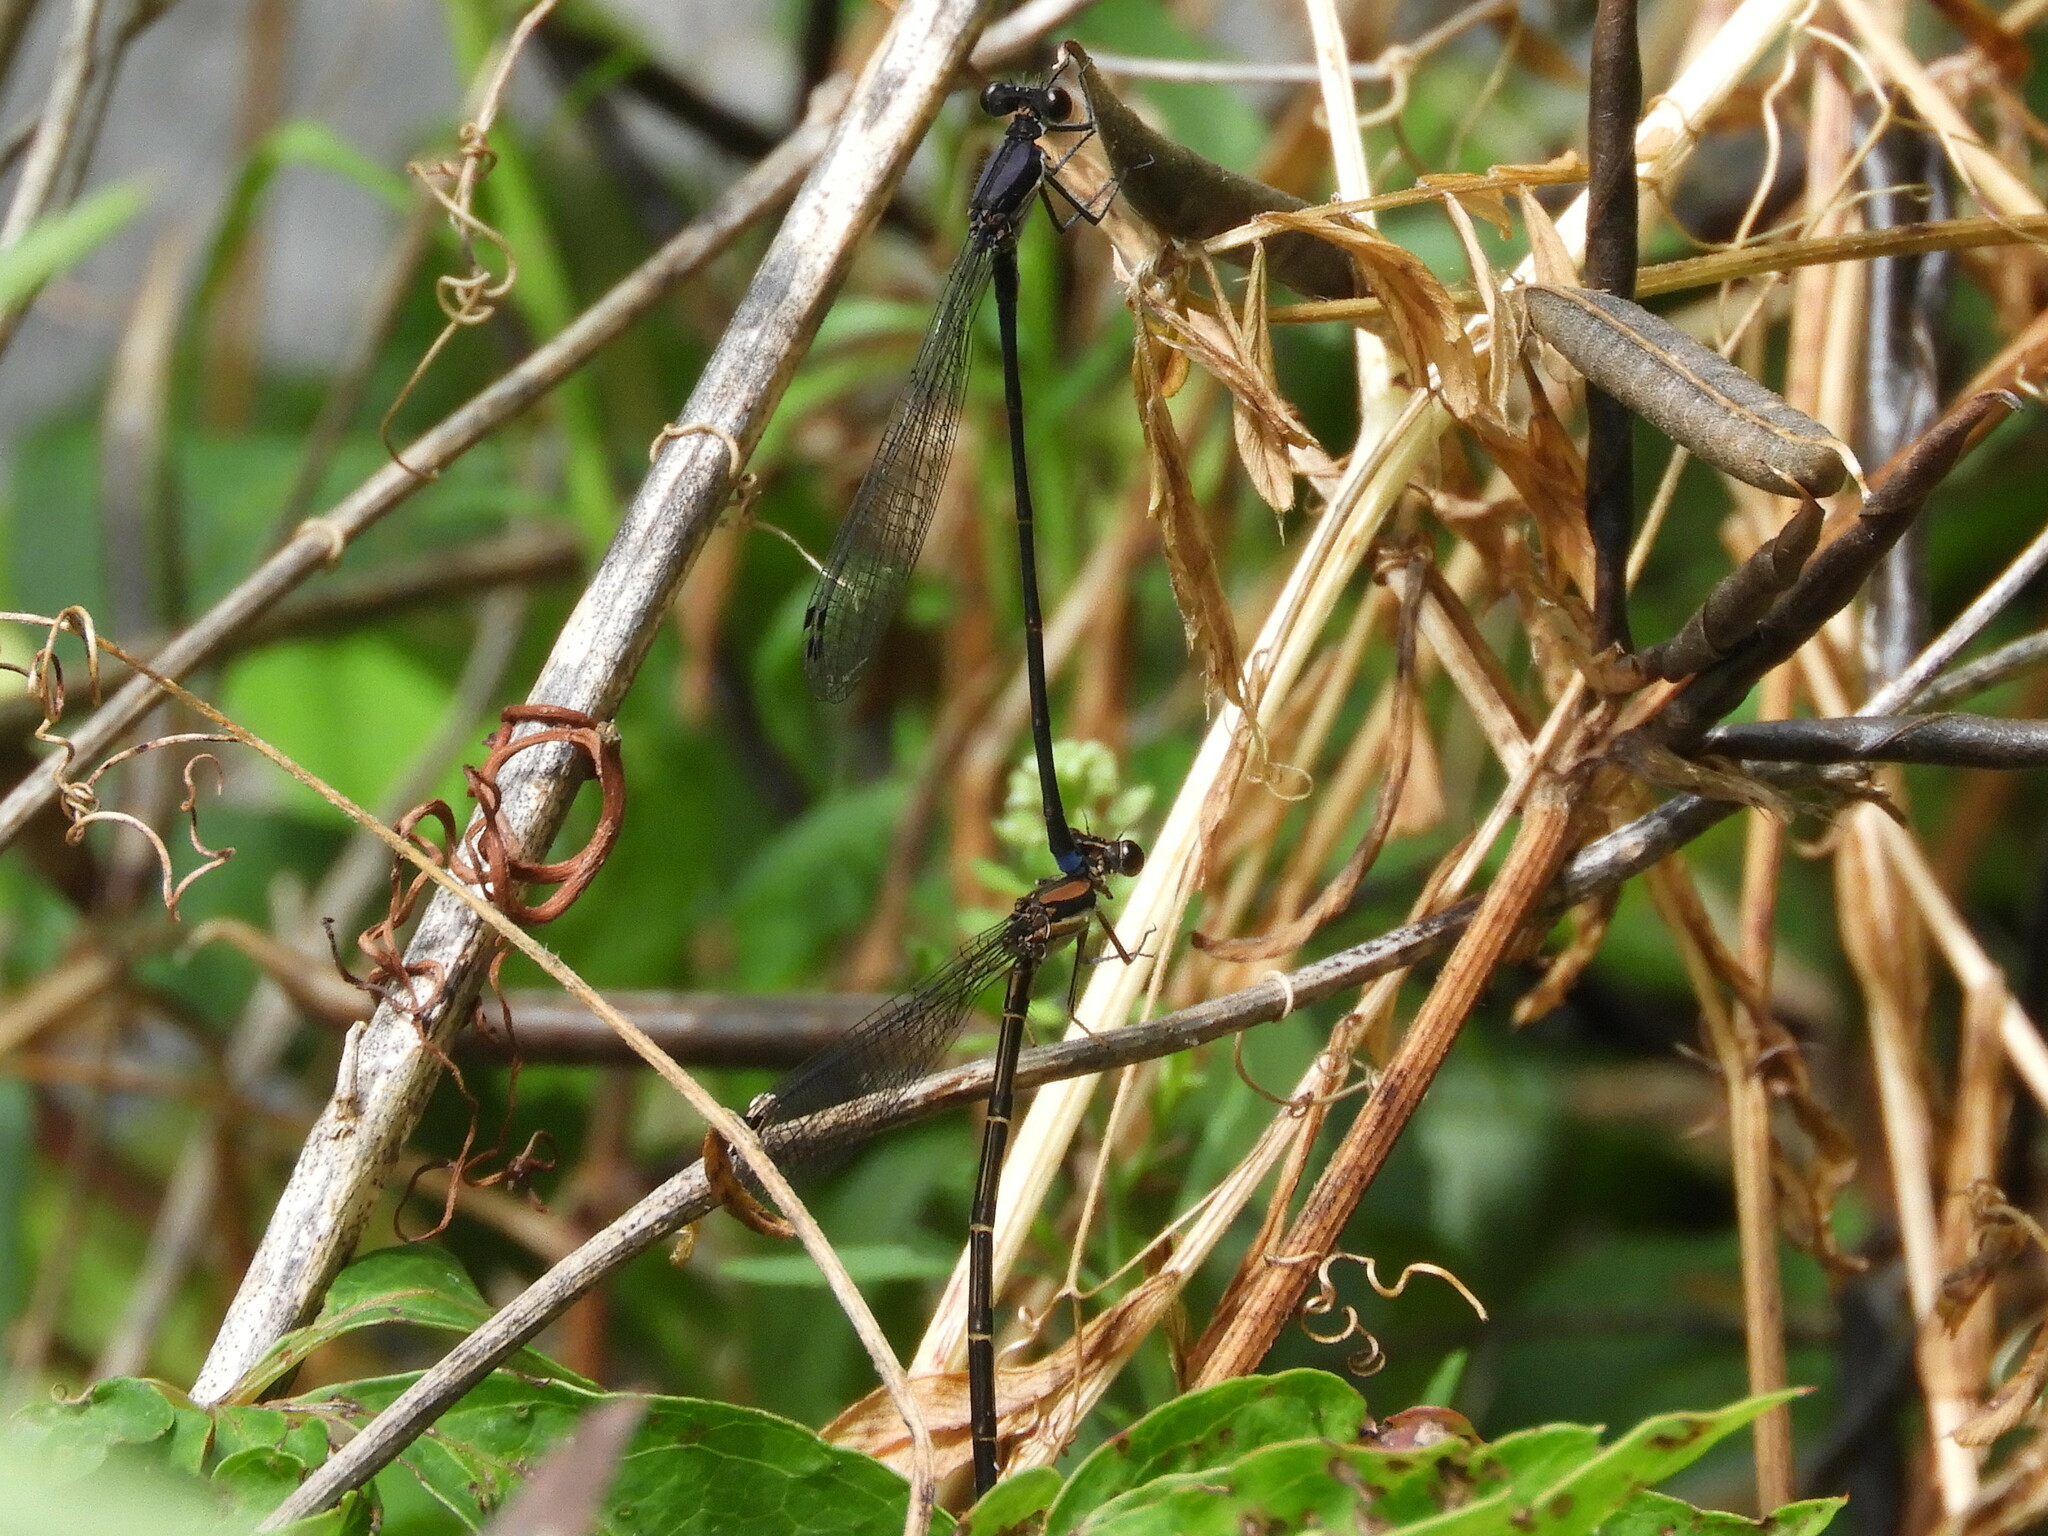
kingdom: Animalia
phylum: Arthropoda
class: Insecta
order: Odonata
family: Coenagrionidae
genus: Argia
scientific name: Argia tibialis
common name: Blue-tipped dancer
